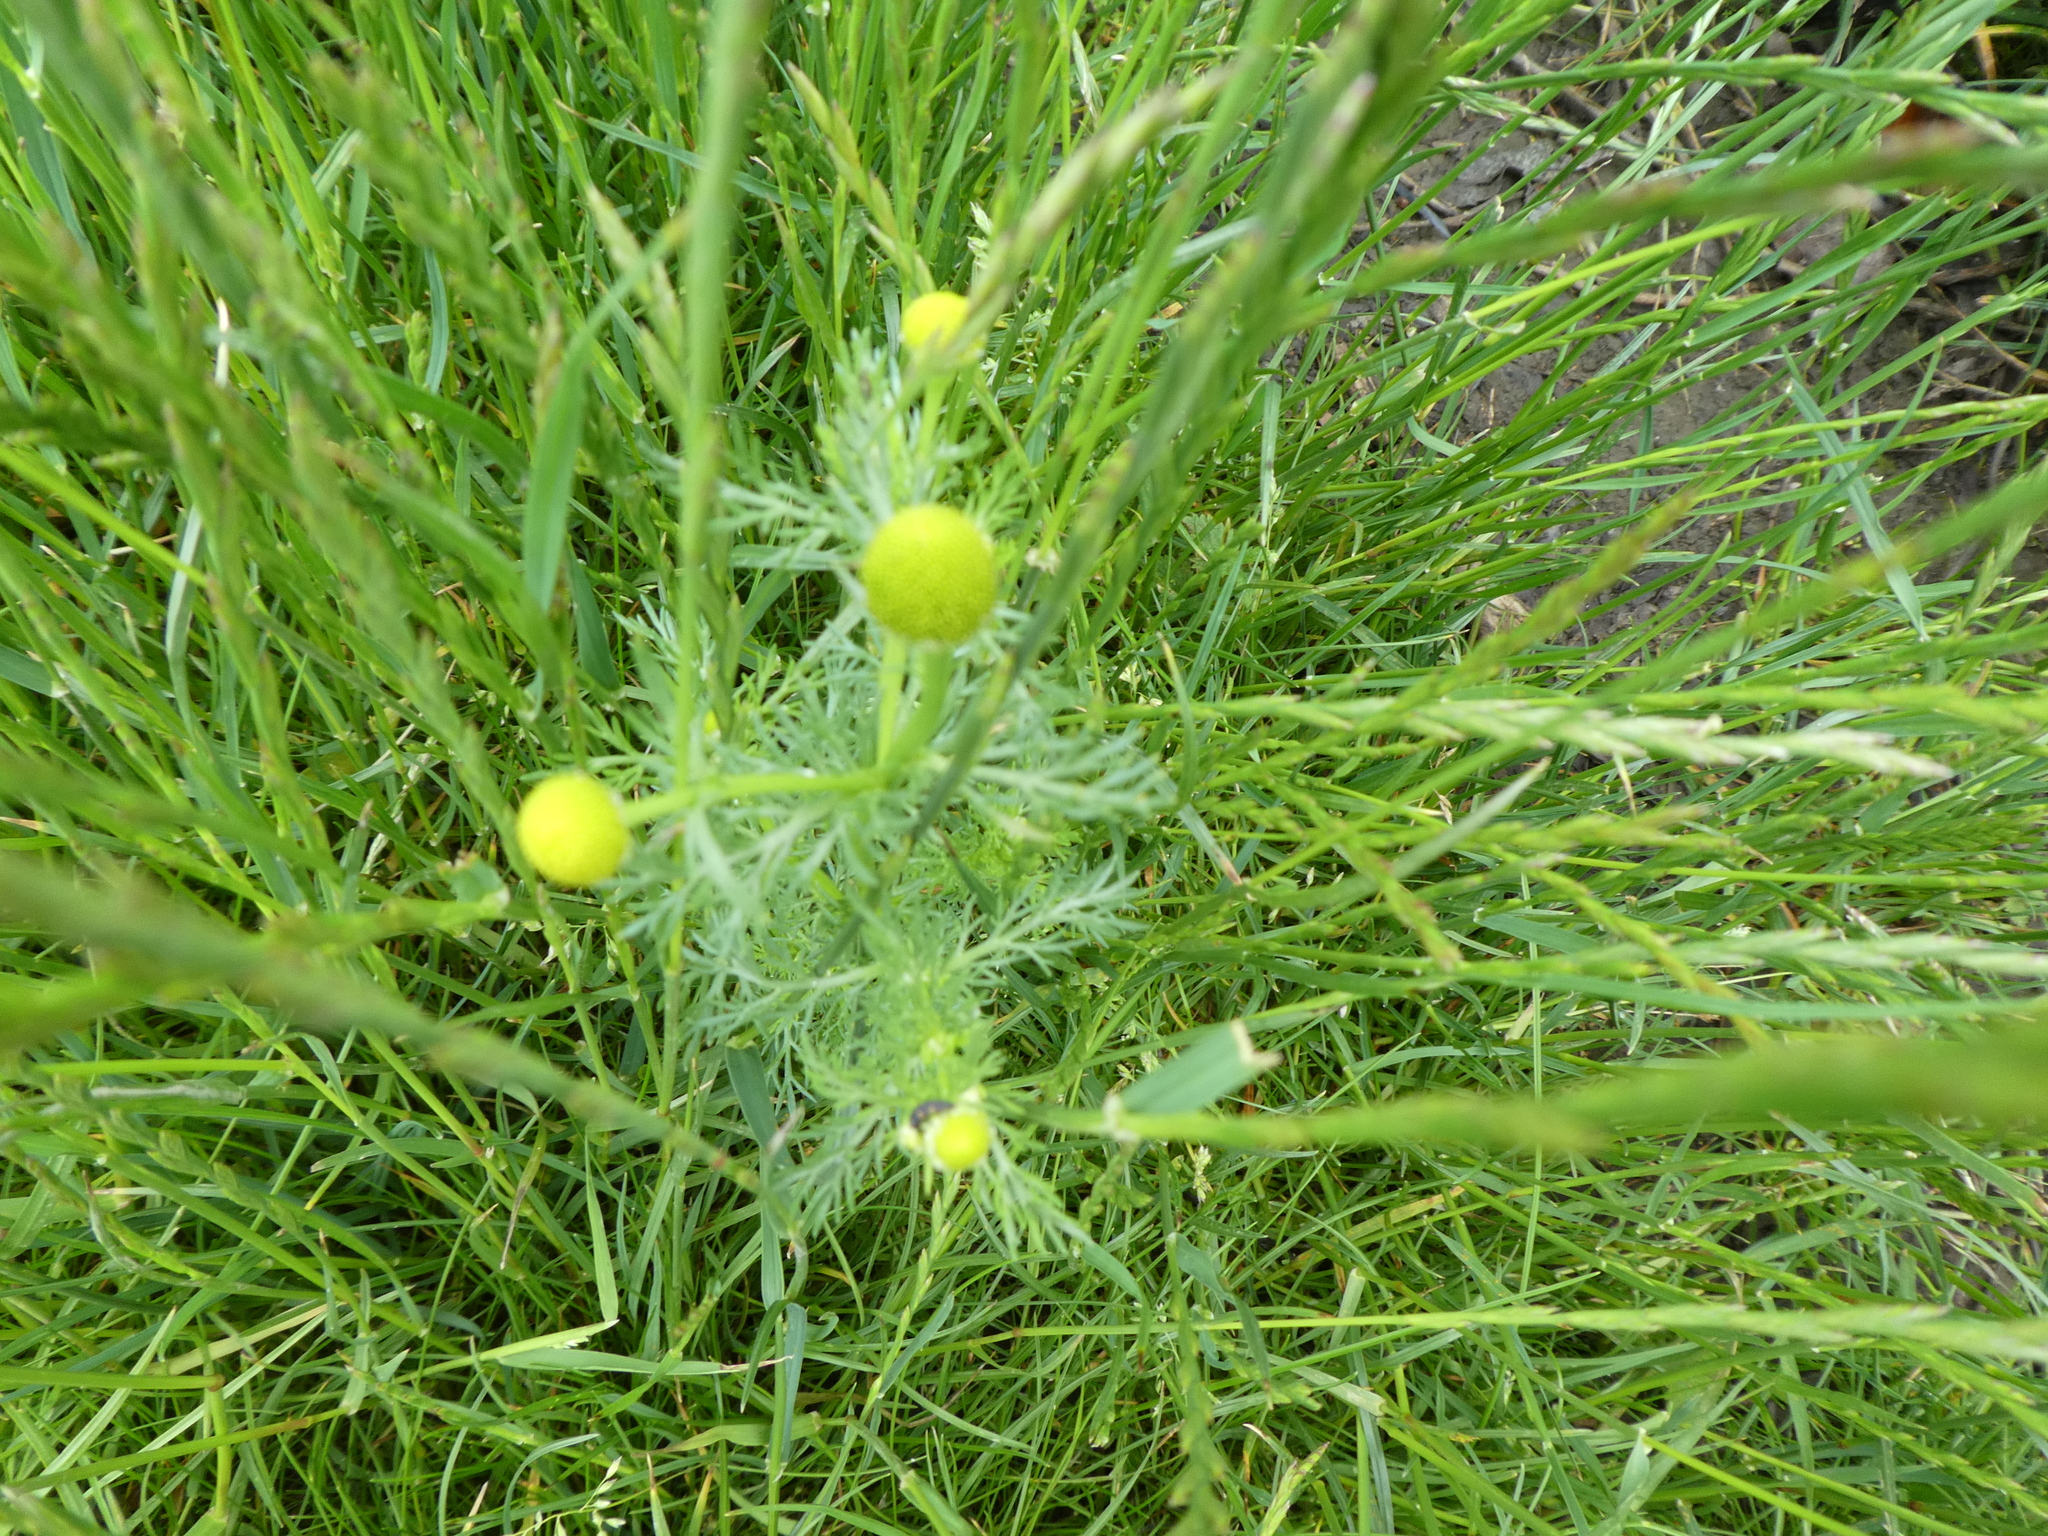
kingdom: Plantae
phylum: Tracheophyta
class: Magnoliopsida
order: Asterales
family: Asteraceae
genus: Matricaria
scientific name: Matricaria discoidea
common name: Disc mayweed
